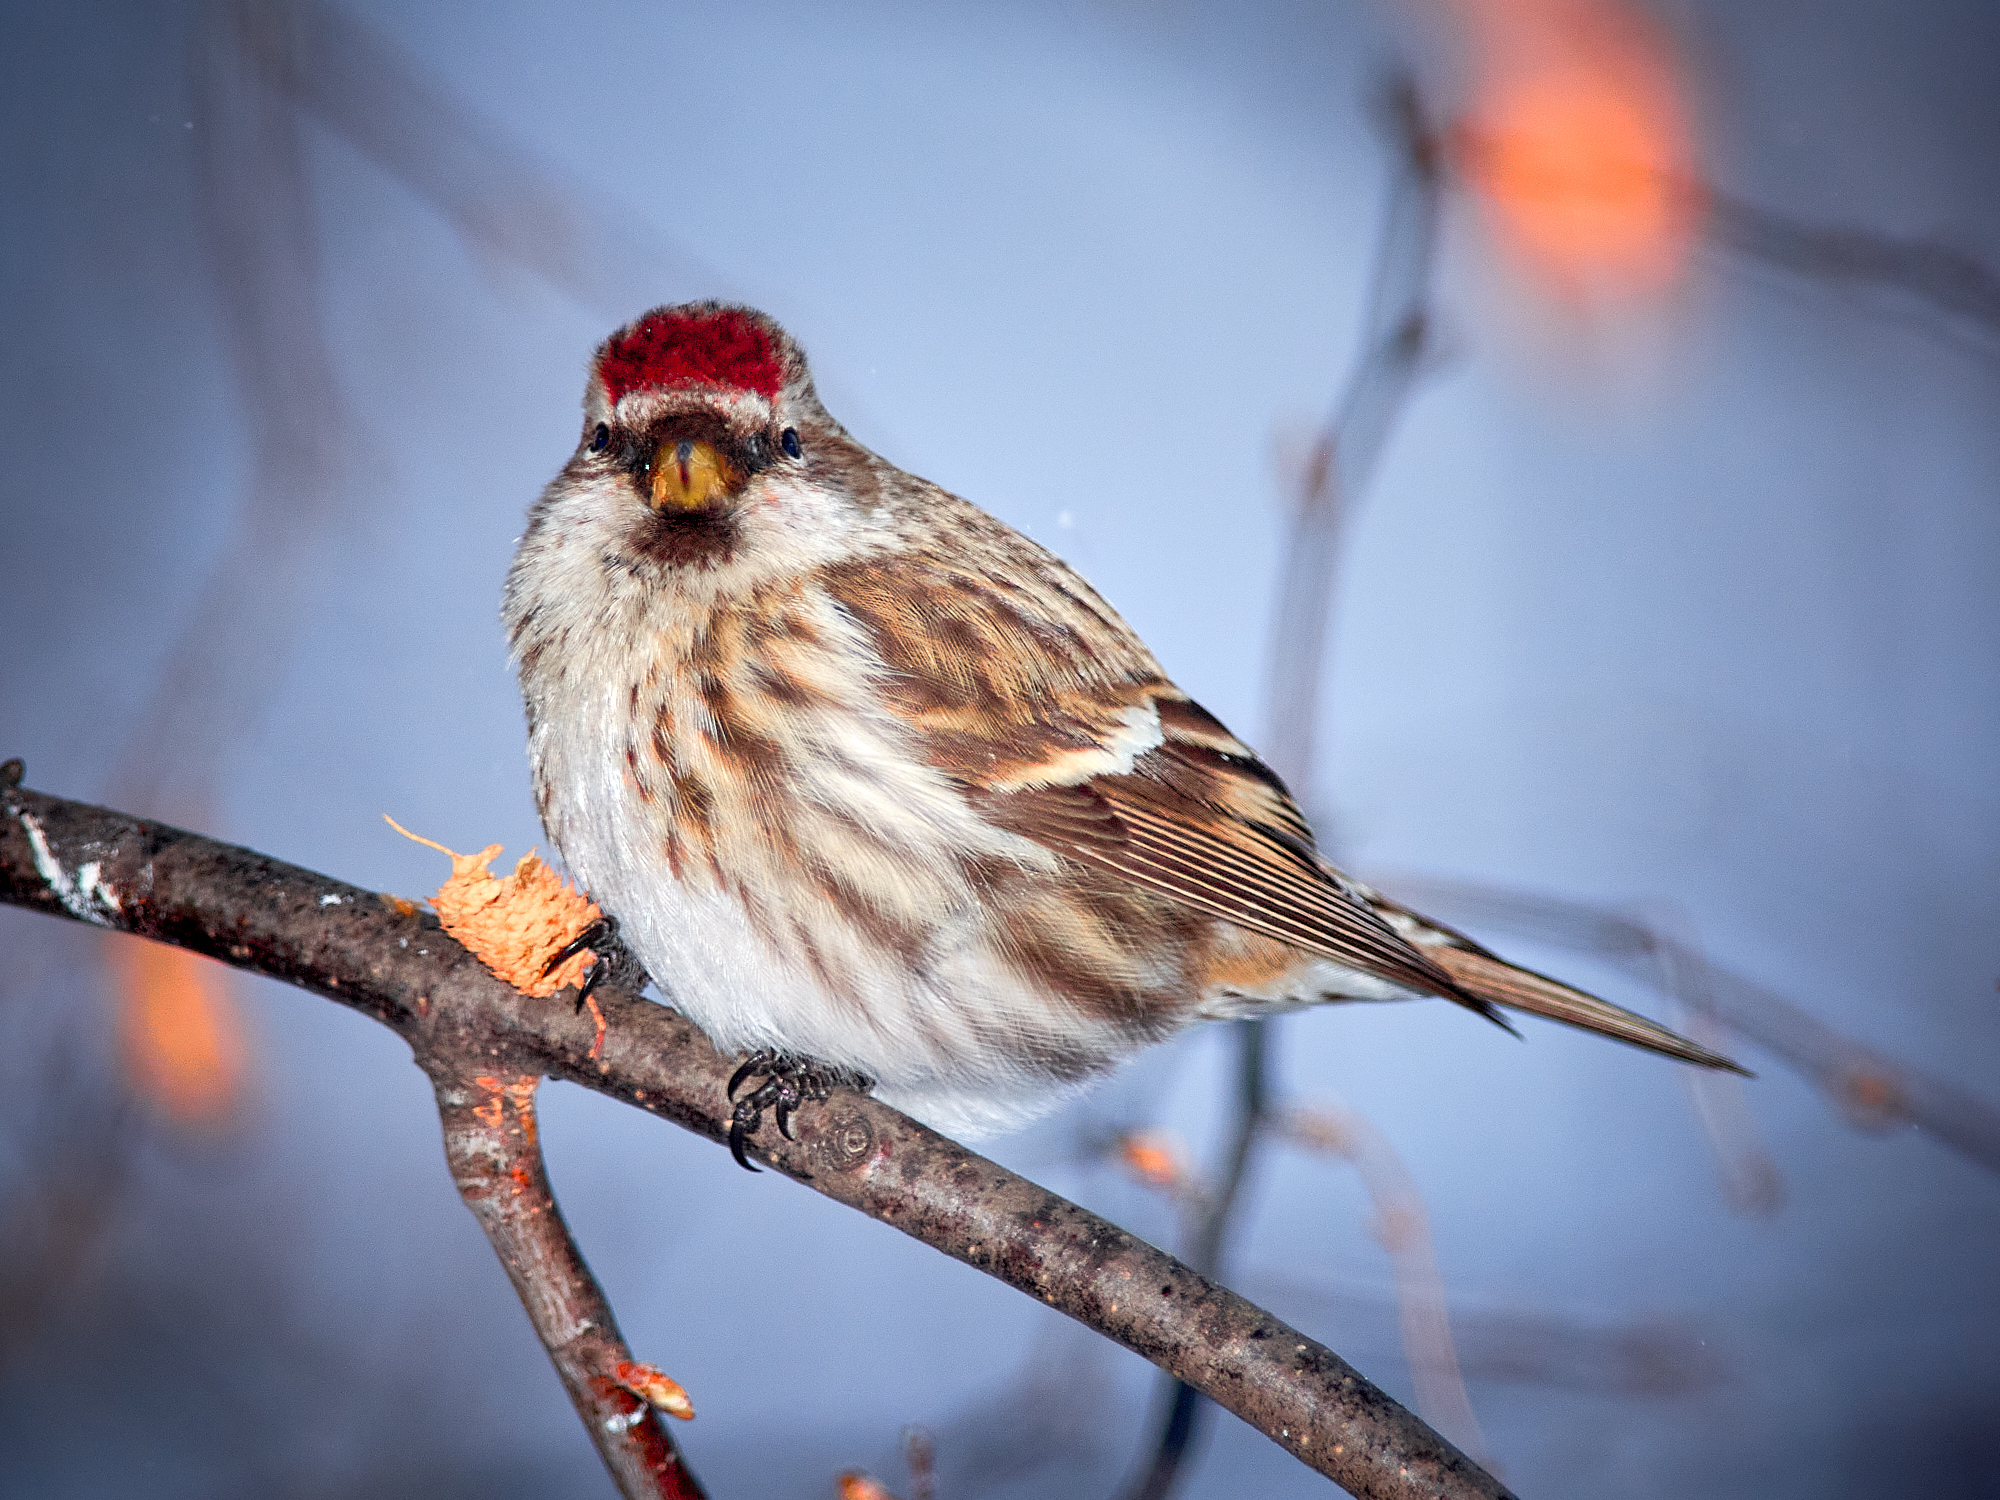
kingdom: Animalia
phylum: Chordata
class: Aves
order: Passeriformes
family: Fringillidae
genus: Acanthis
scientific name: Acanthis flammea
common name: Common redpoll
